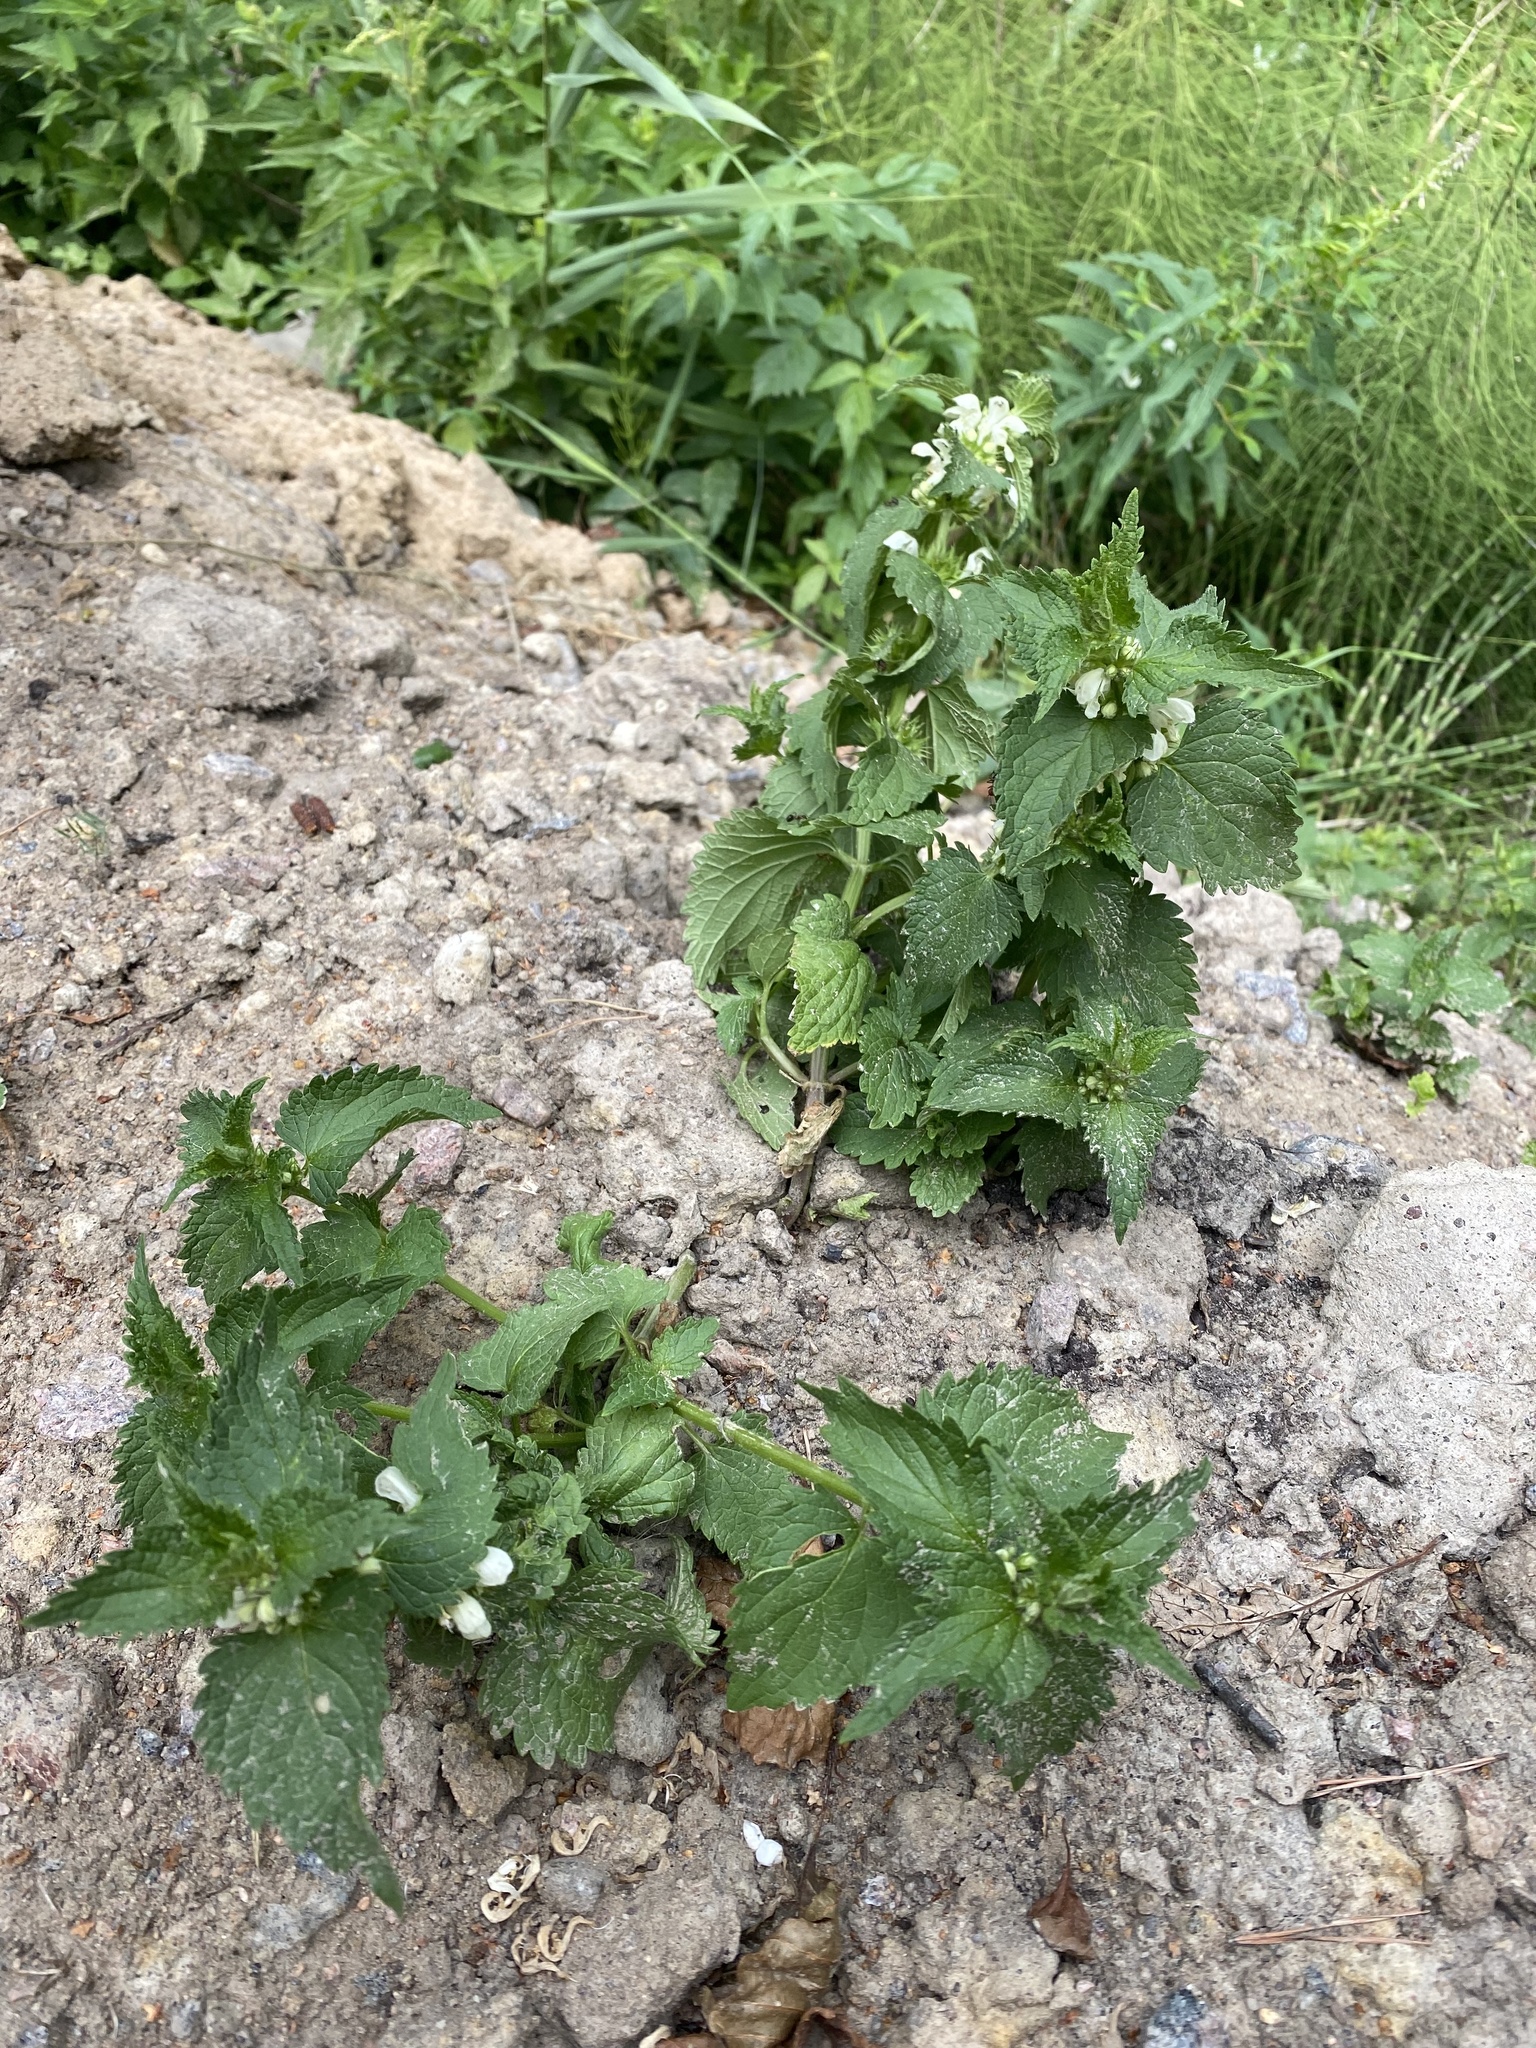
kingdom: Plantae
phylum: Tracheophyta
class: Magnoliopsida
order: Lamiales
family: Lamiaceae
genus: Lamium
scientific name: Lamium album
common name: White dead-nettle
